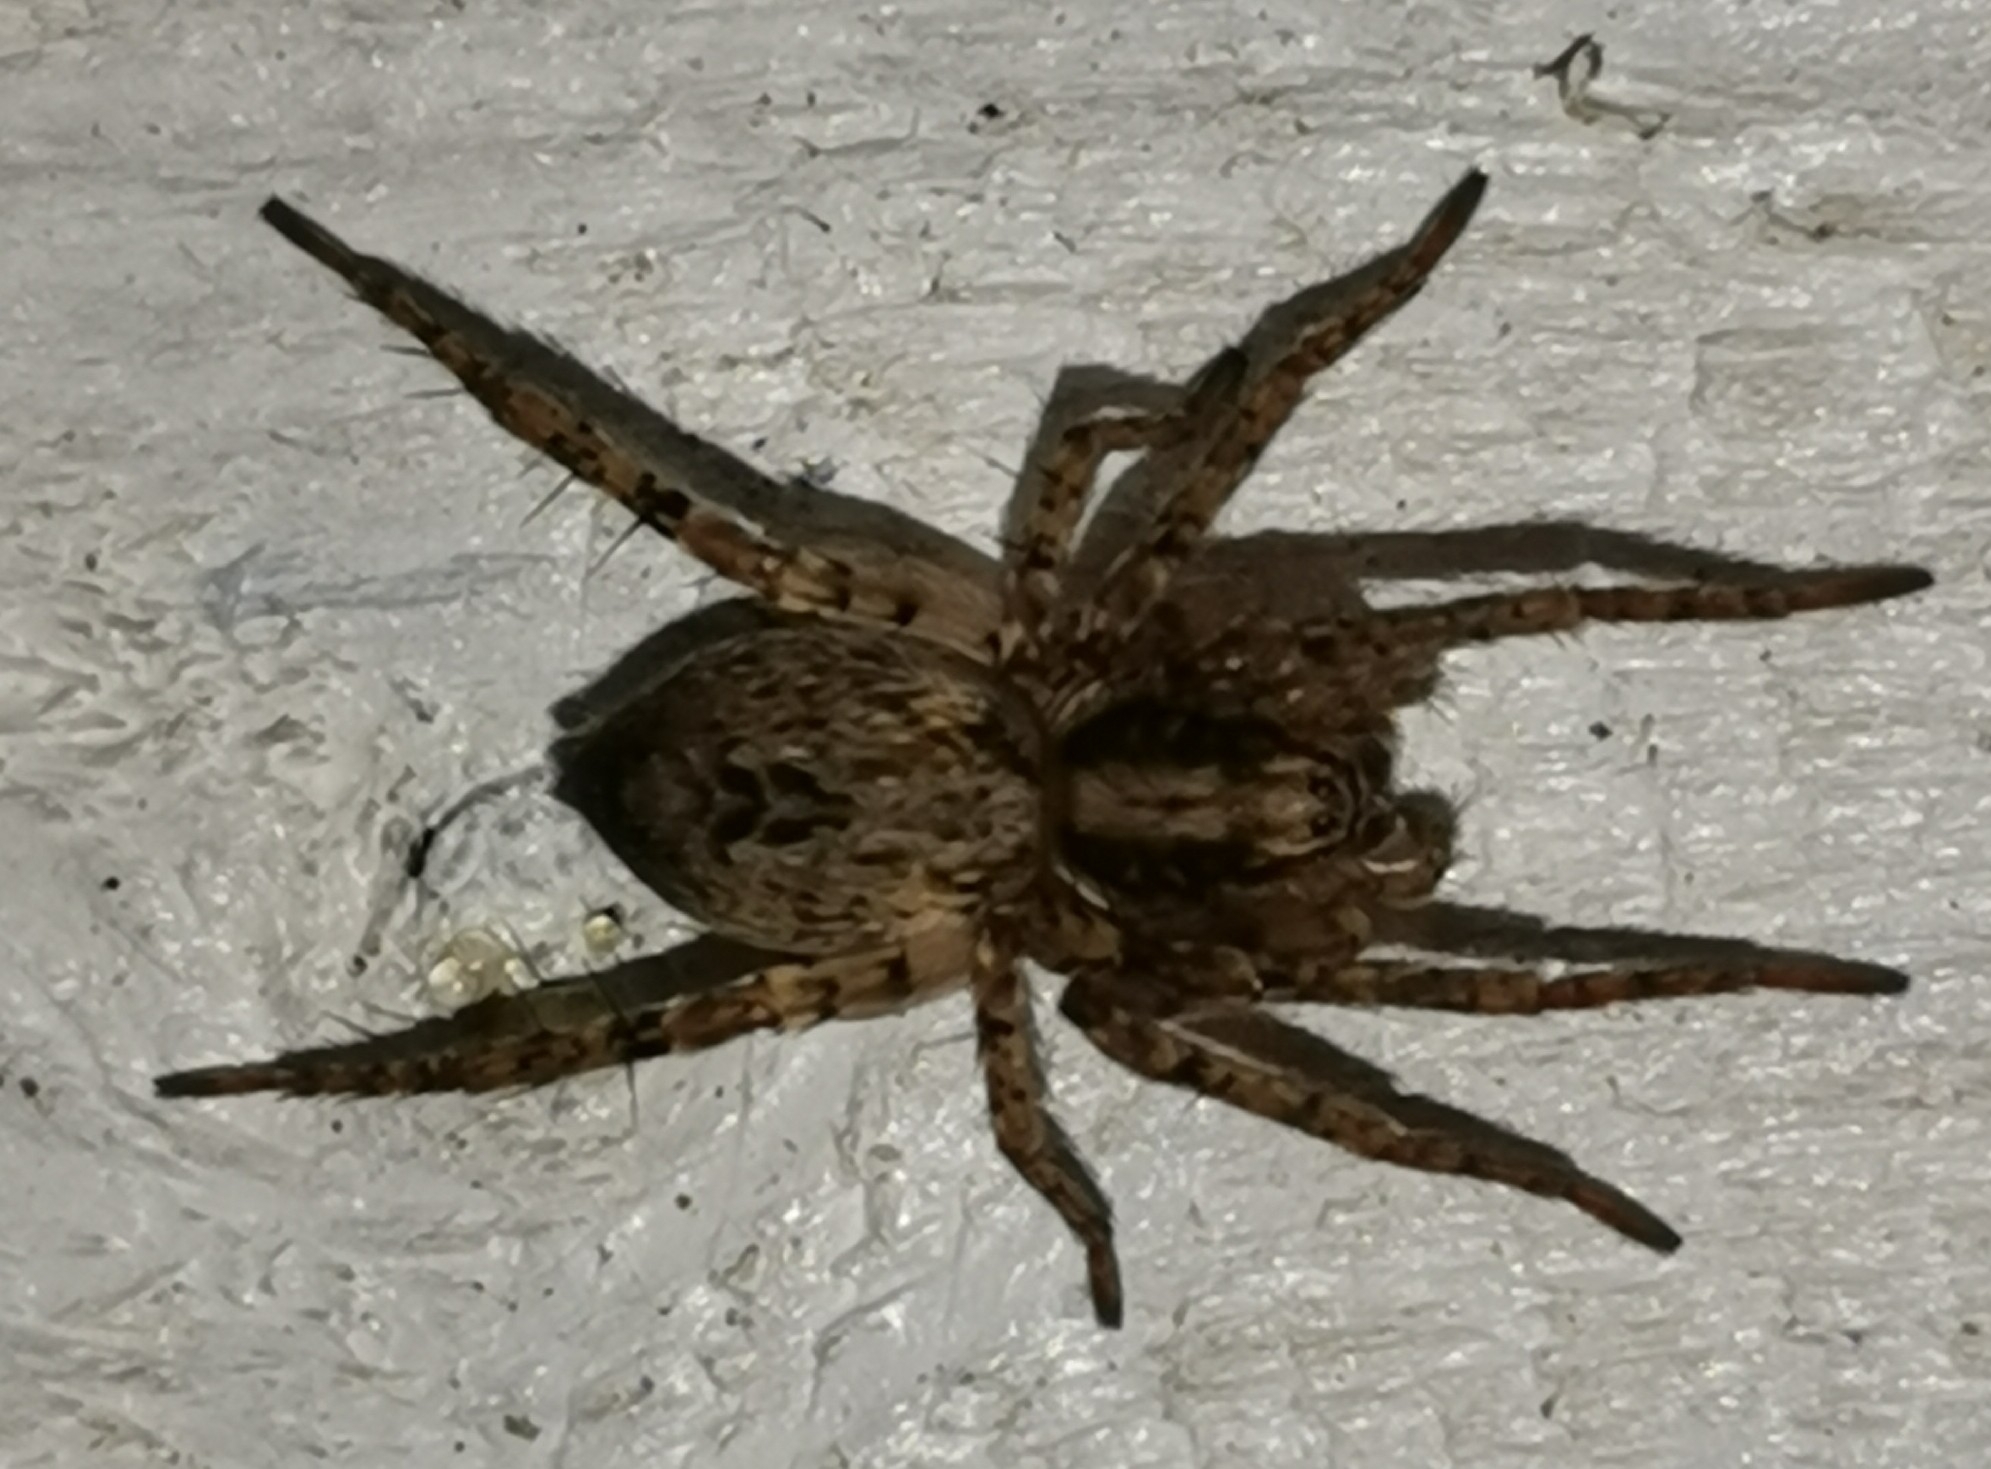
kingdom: Animalia
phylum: Arthropoda
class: Arachnida
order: Araneae
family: Anyphaenidae
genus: Anyphaena
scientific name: Anyphaena accentuata
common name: Buzzing spider
